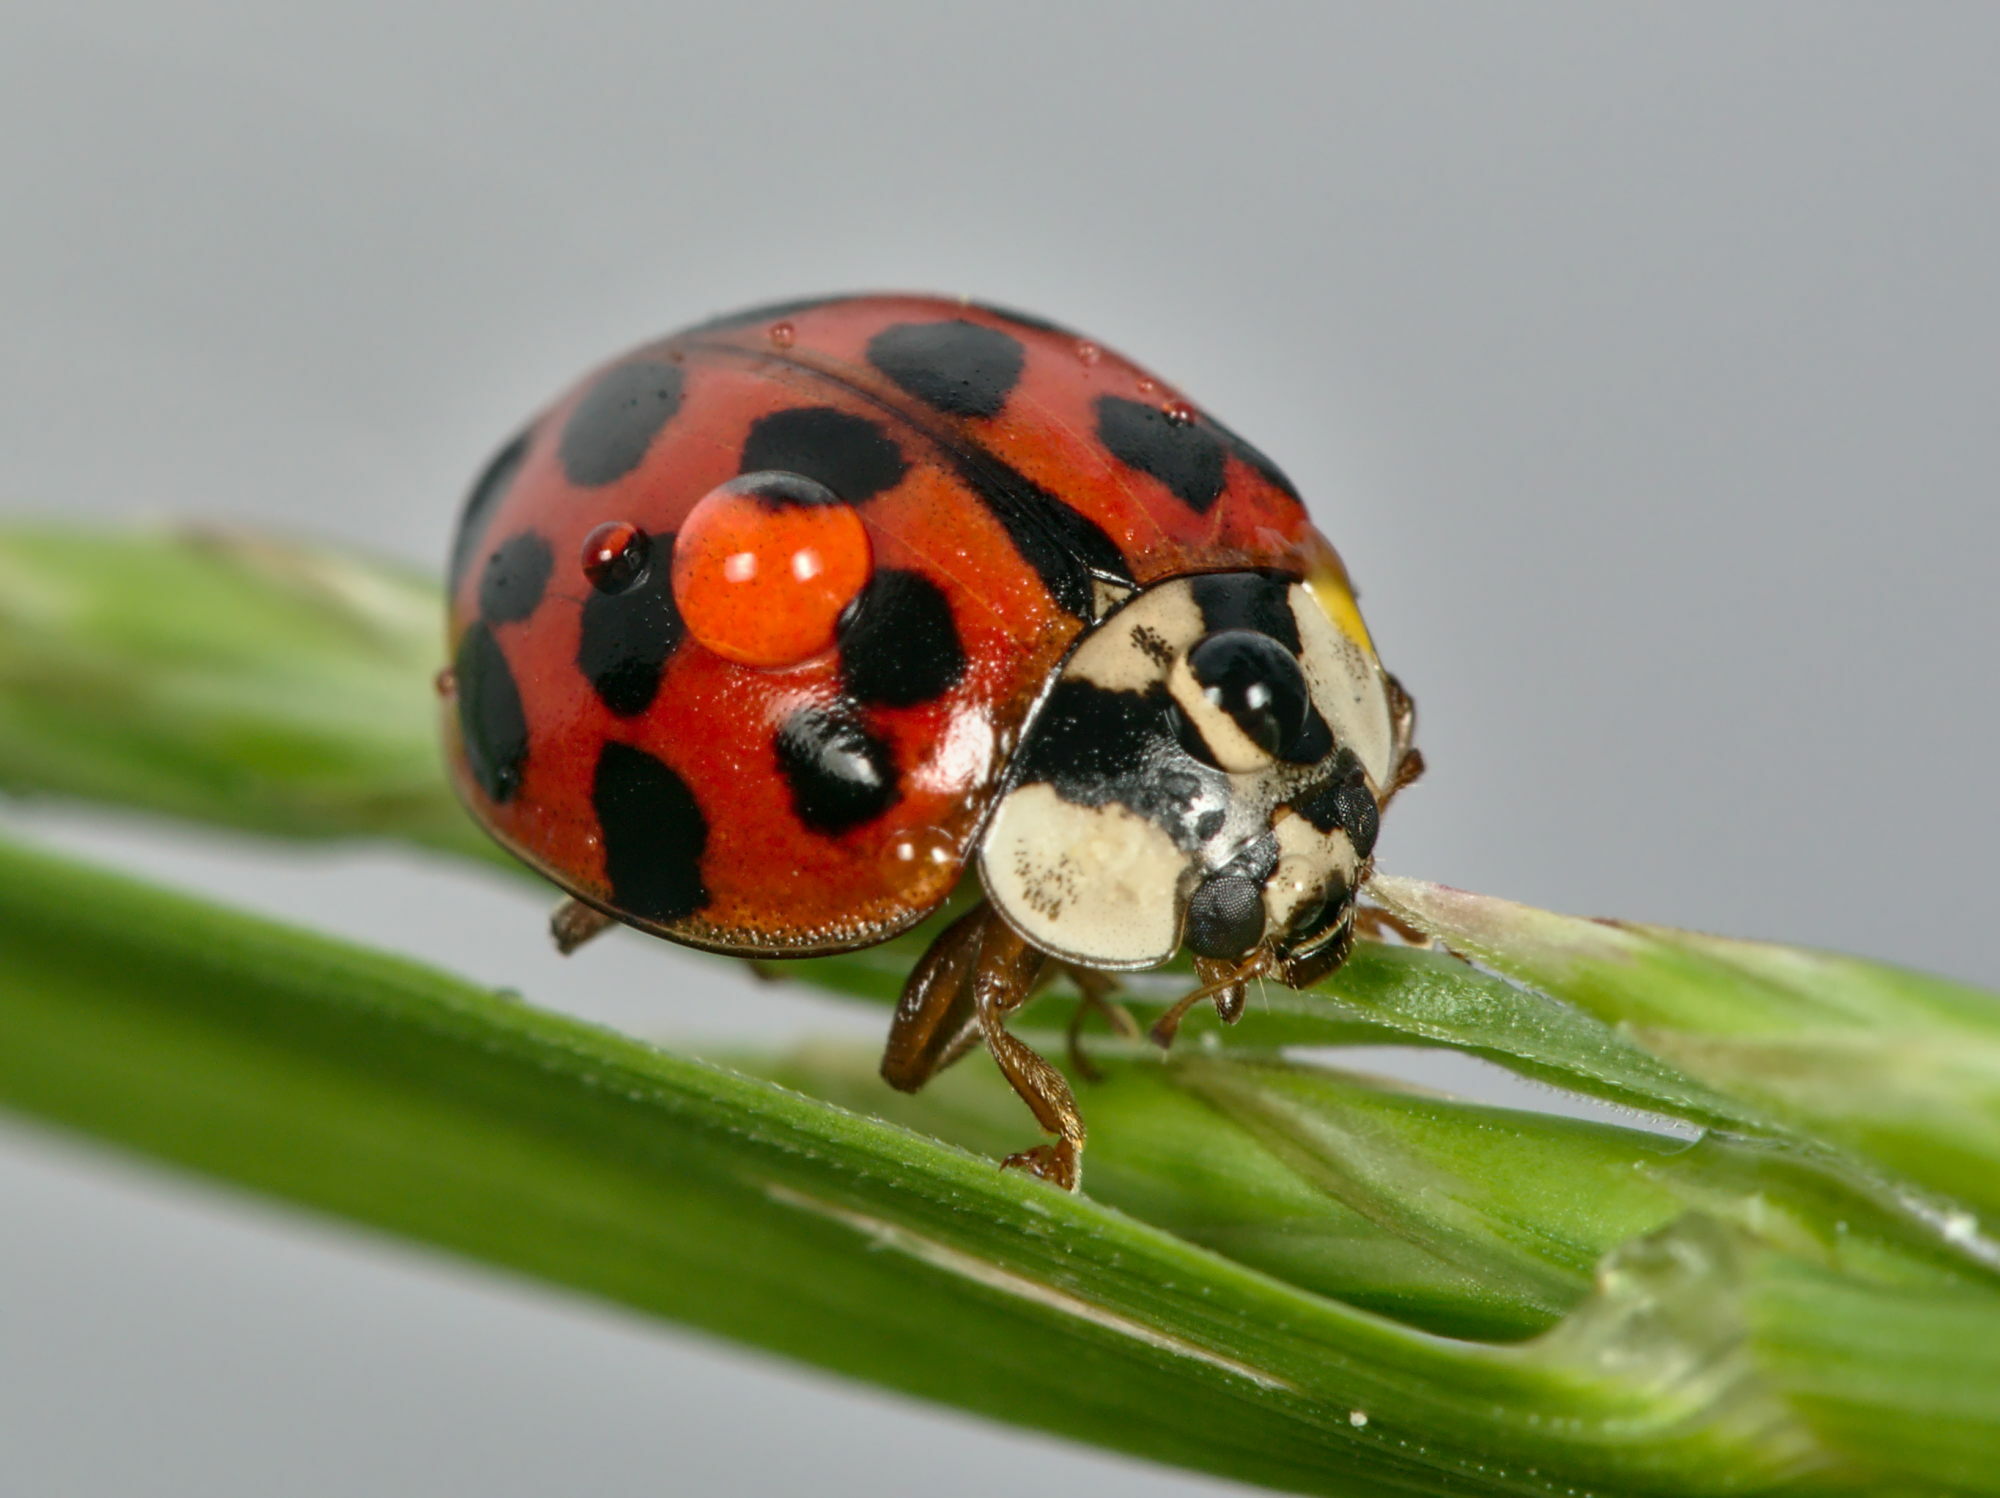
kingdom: Animalia
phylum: Arthropoda
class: Insecta
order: Coleoptera
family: Coccinellidae
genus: Harmonia
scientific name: Harmonia axyridis
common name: Harlequin ladybird
